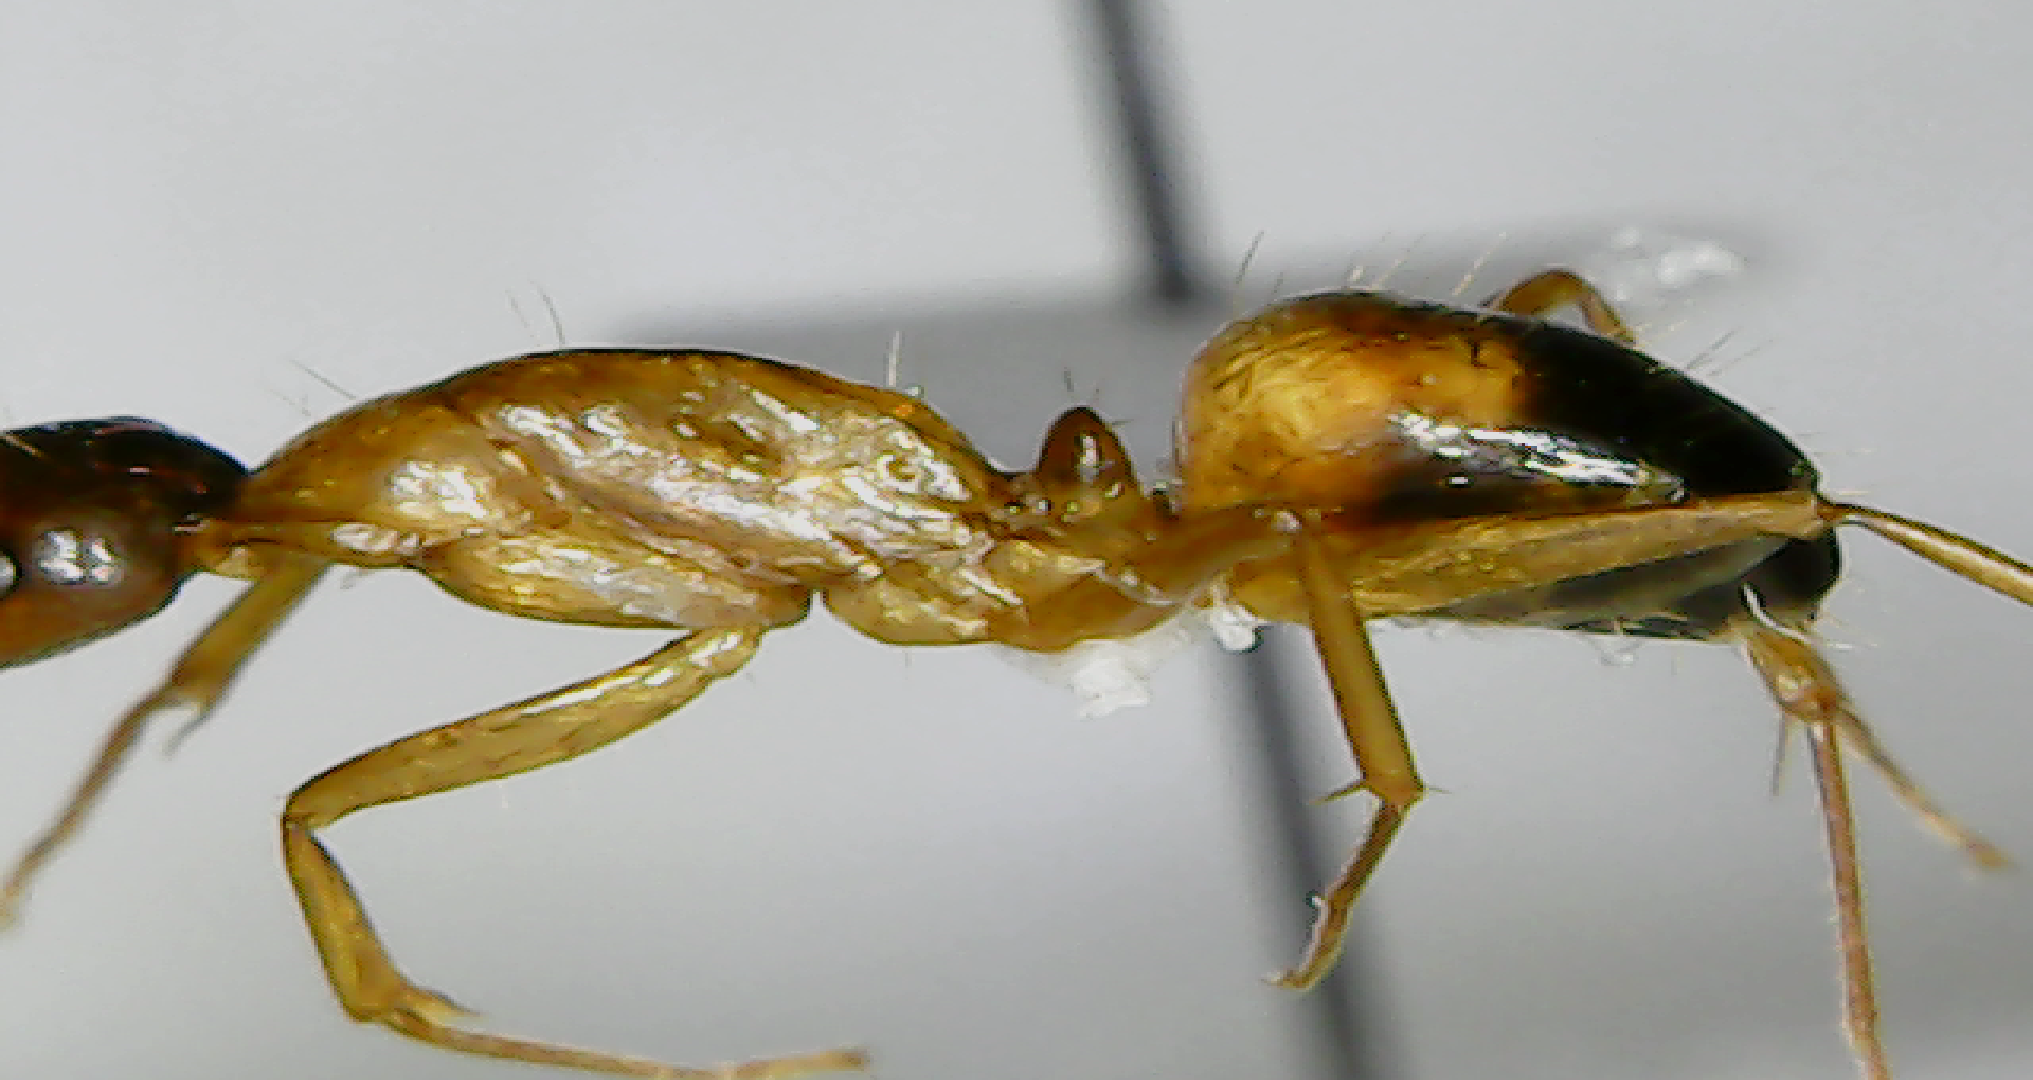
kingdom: Animalia
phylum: Arthropoda
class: Insecta
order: Hymenoptera
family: Formicidae
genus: Camponotus
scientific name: Camponotus nylanderi
